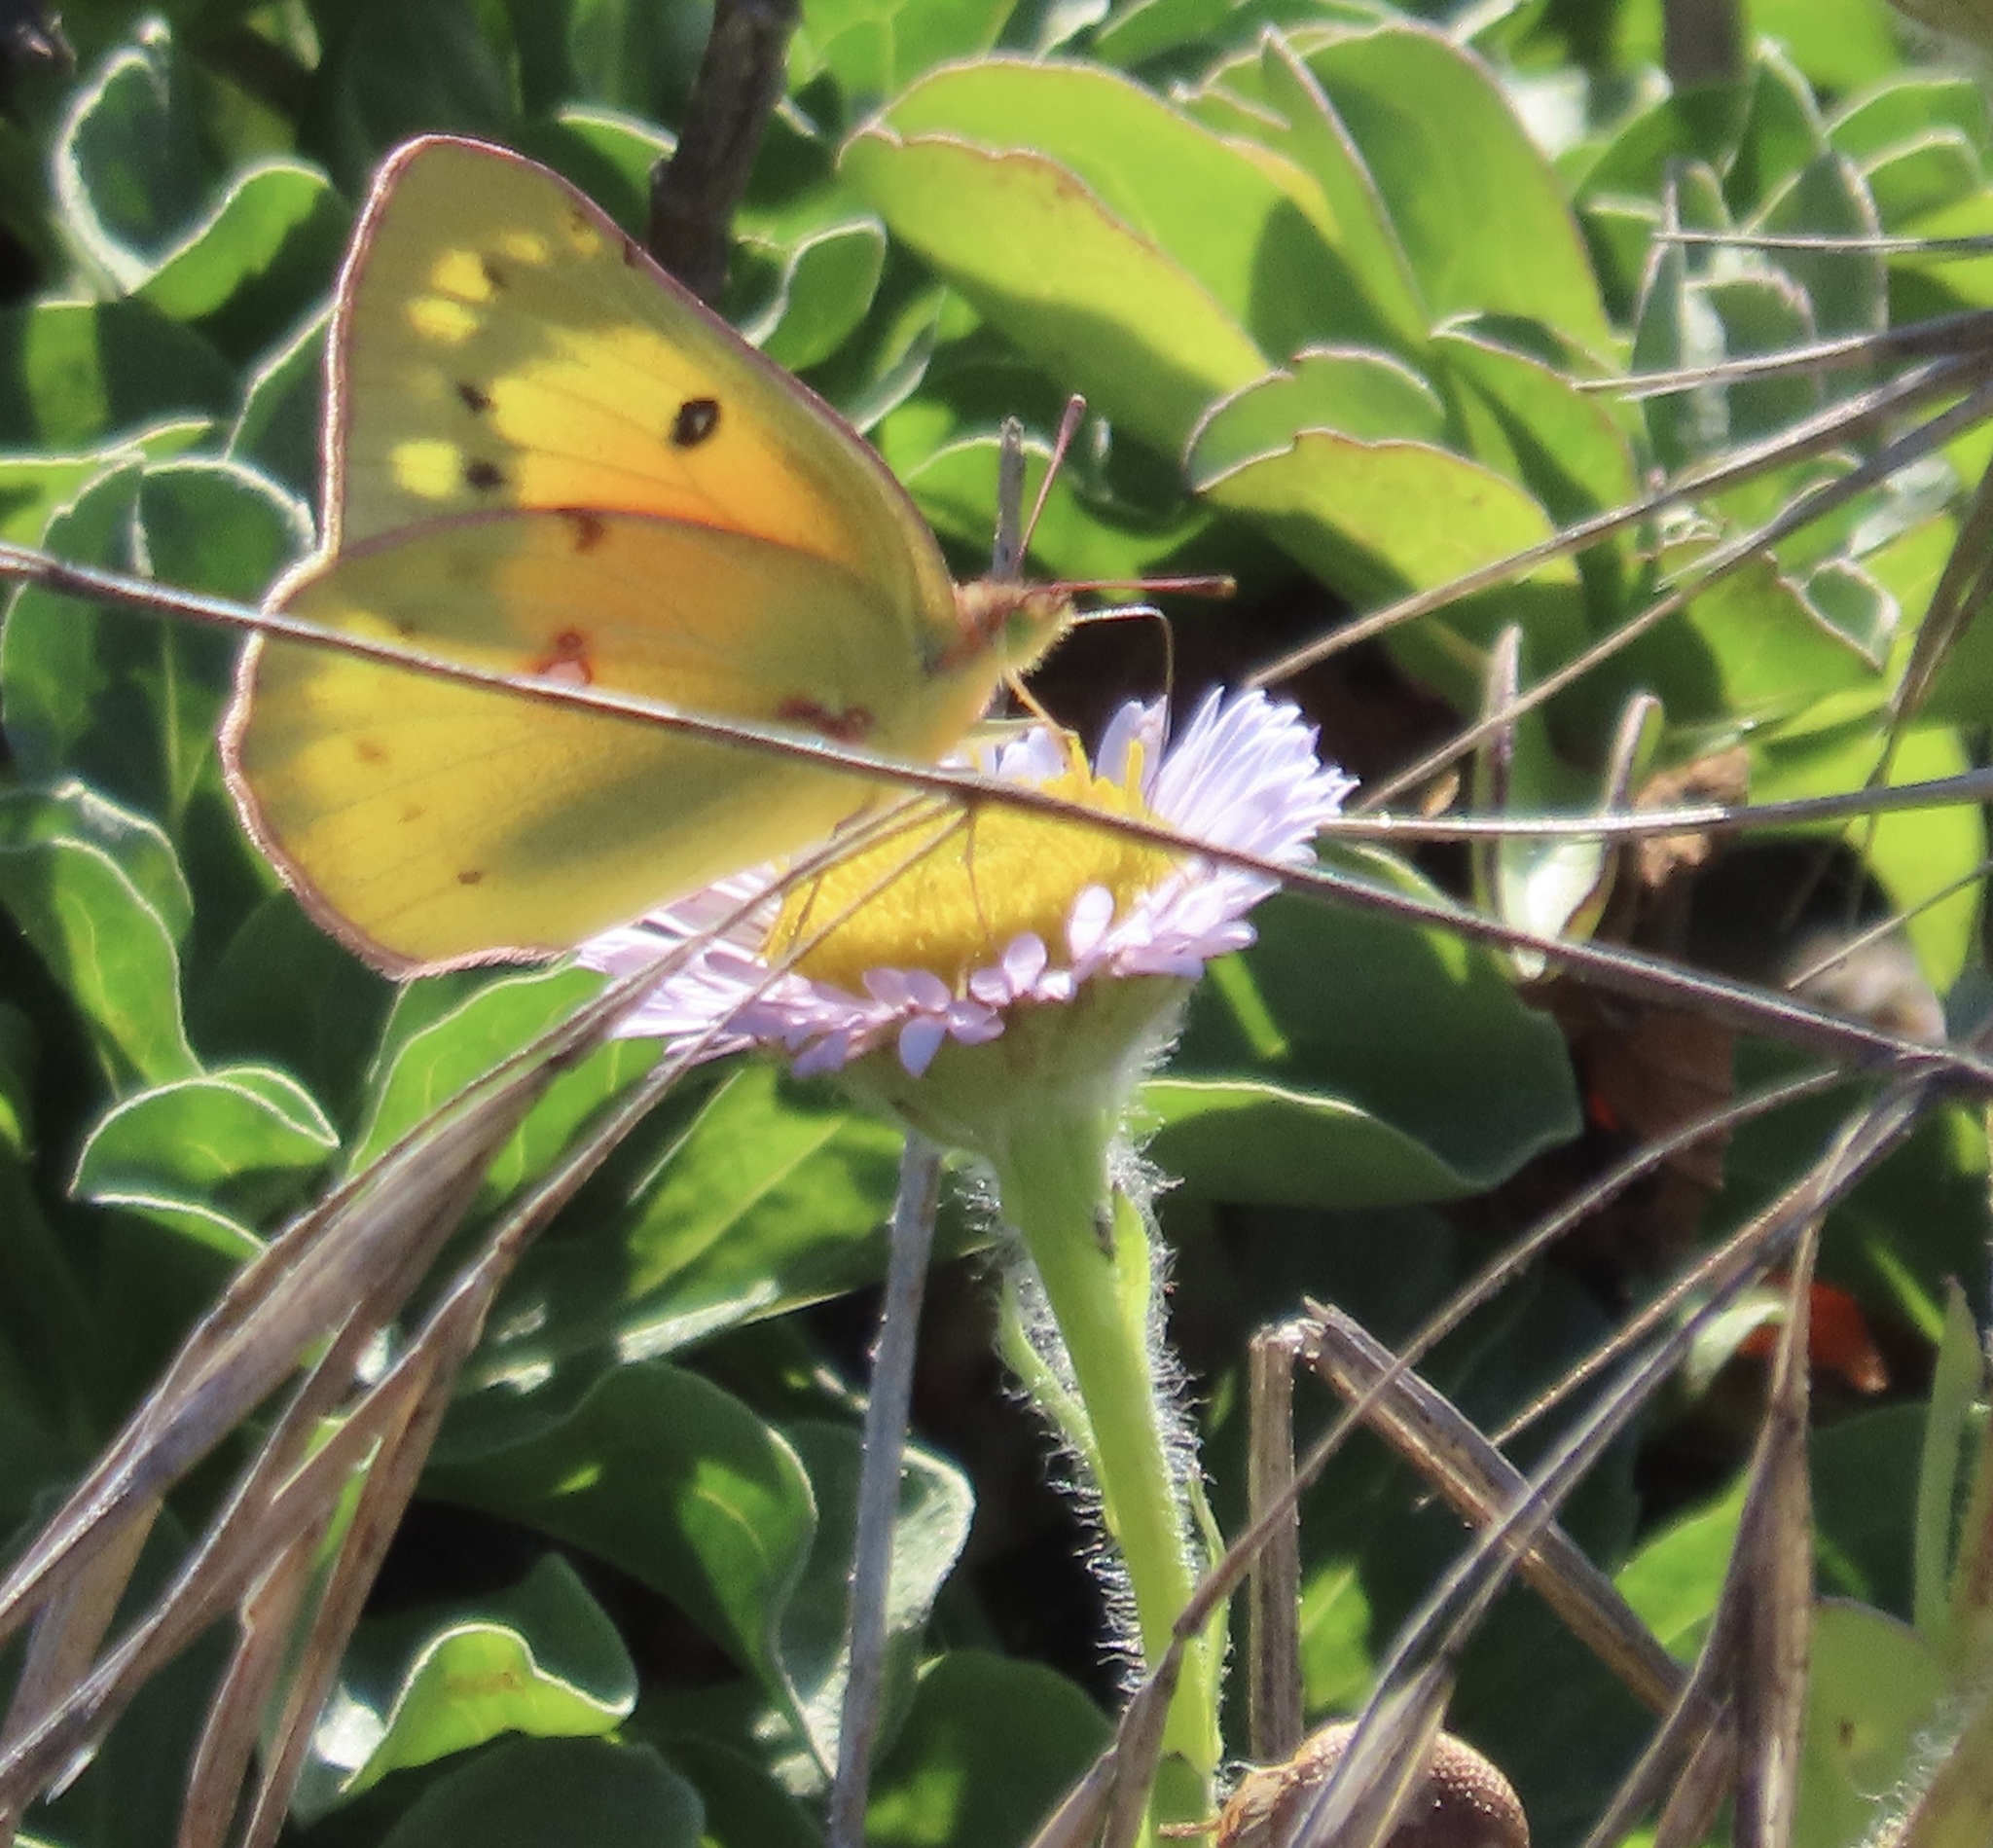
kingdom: Animalia
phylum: Arthropoda
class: Insecta
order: Lepidoptera
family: Pieridae
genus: Colias
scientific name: Colias eurytheme
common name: Alfalfa butterfly
